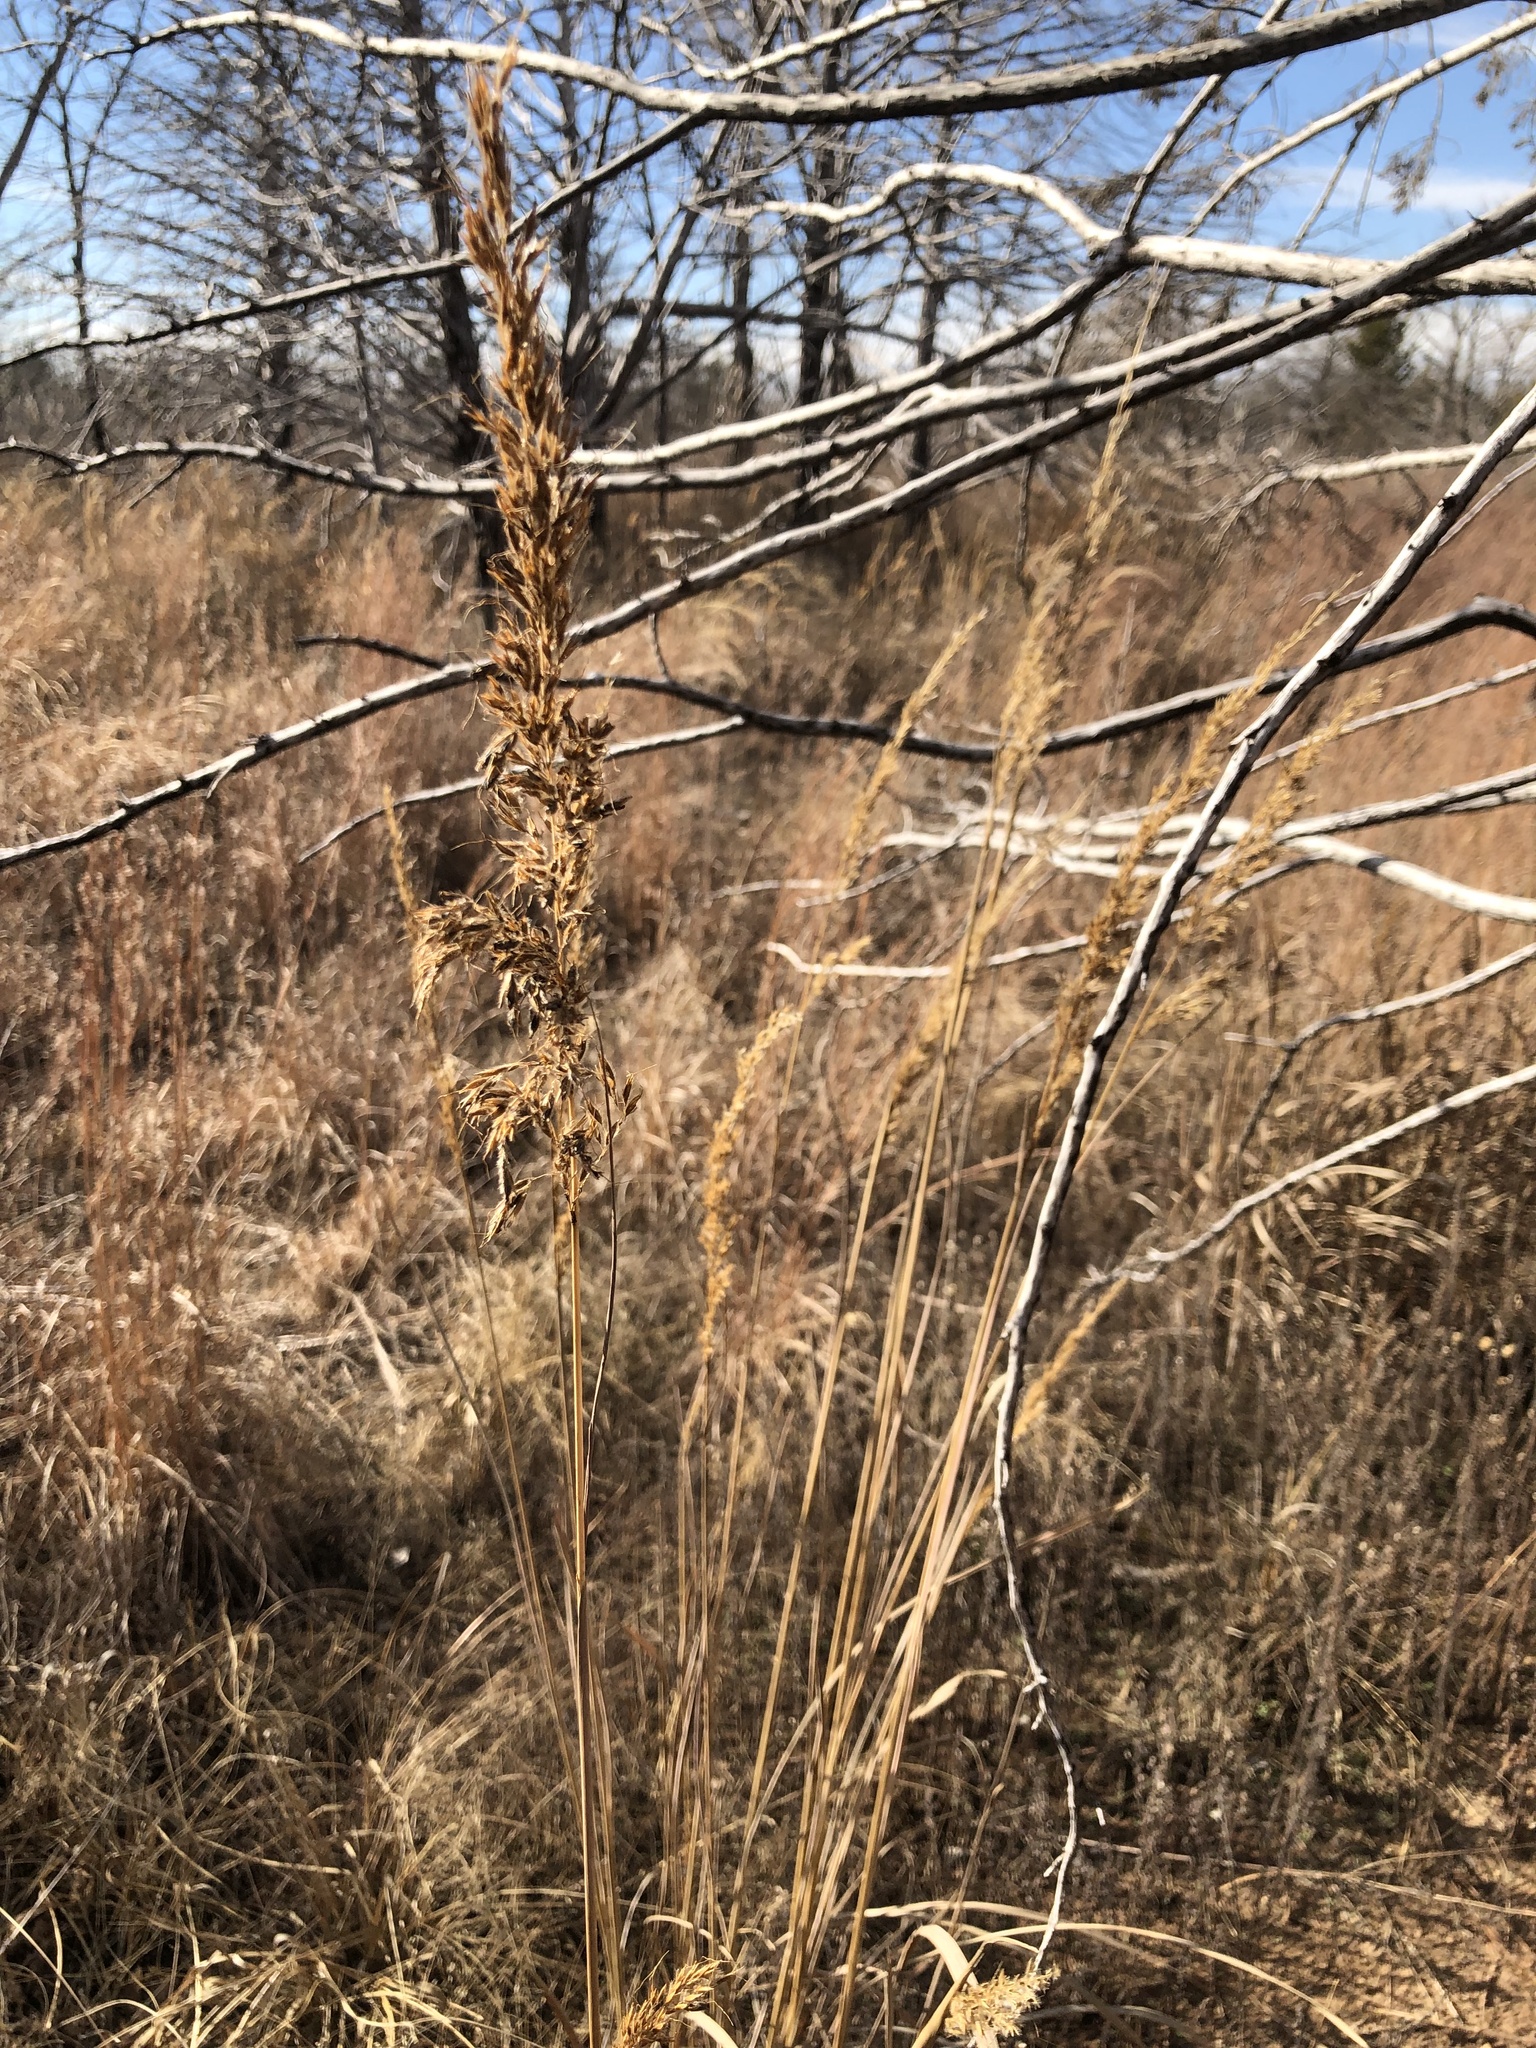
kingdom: Plantae
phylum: Tracheophyta
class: Liliopsida
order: Poales
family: Poaceae
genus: Sorghastrum
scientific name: Sorghastrum nutans
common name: Indian grass
